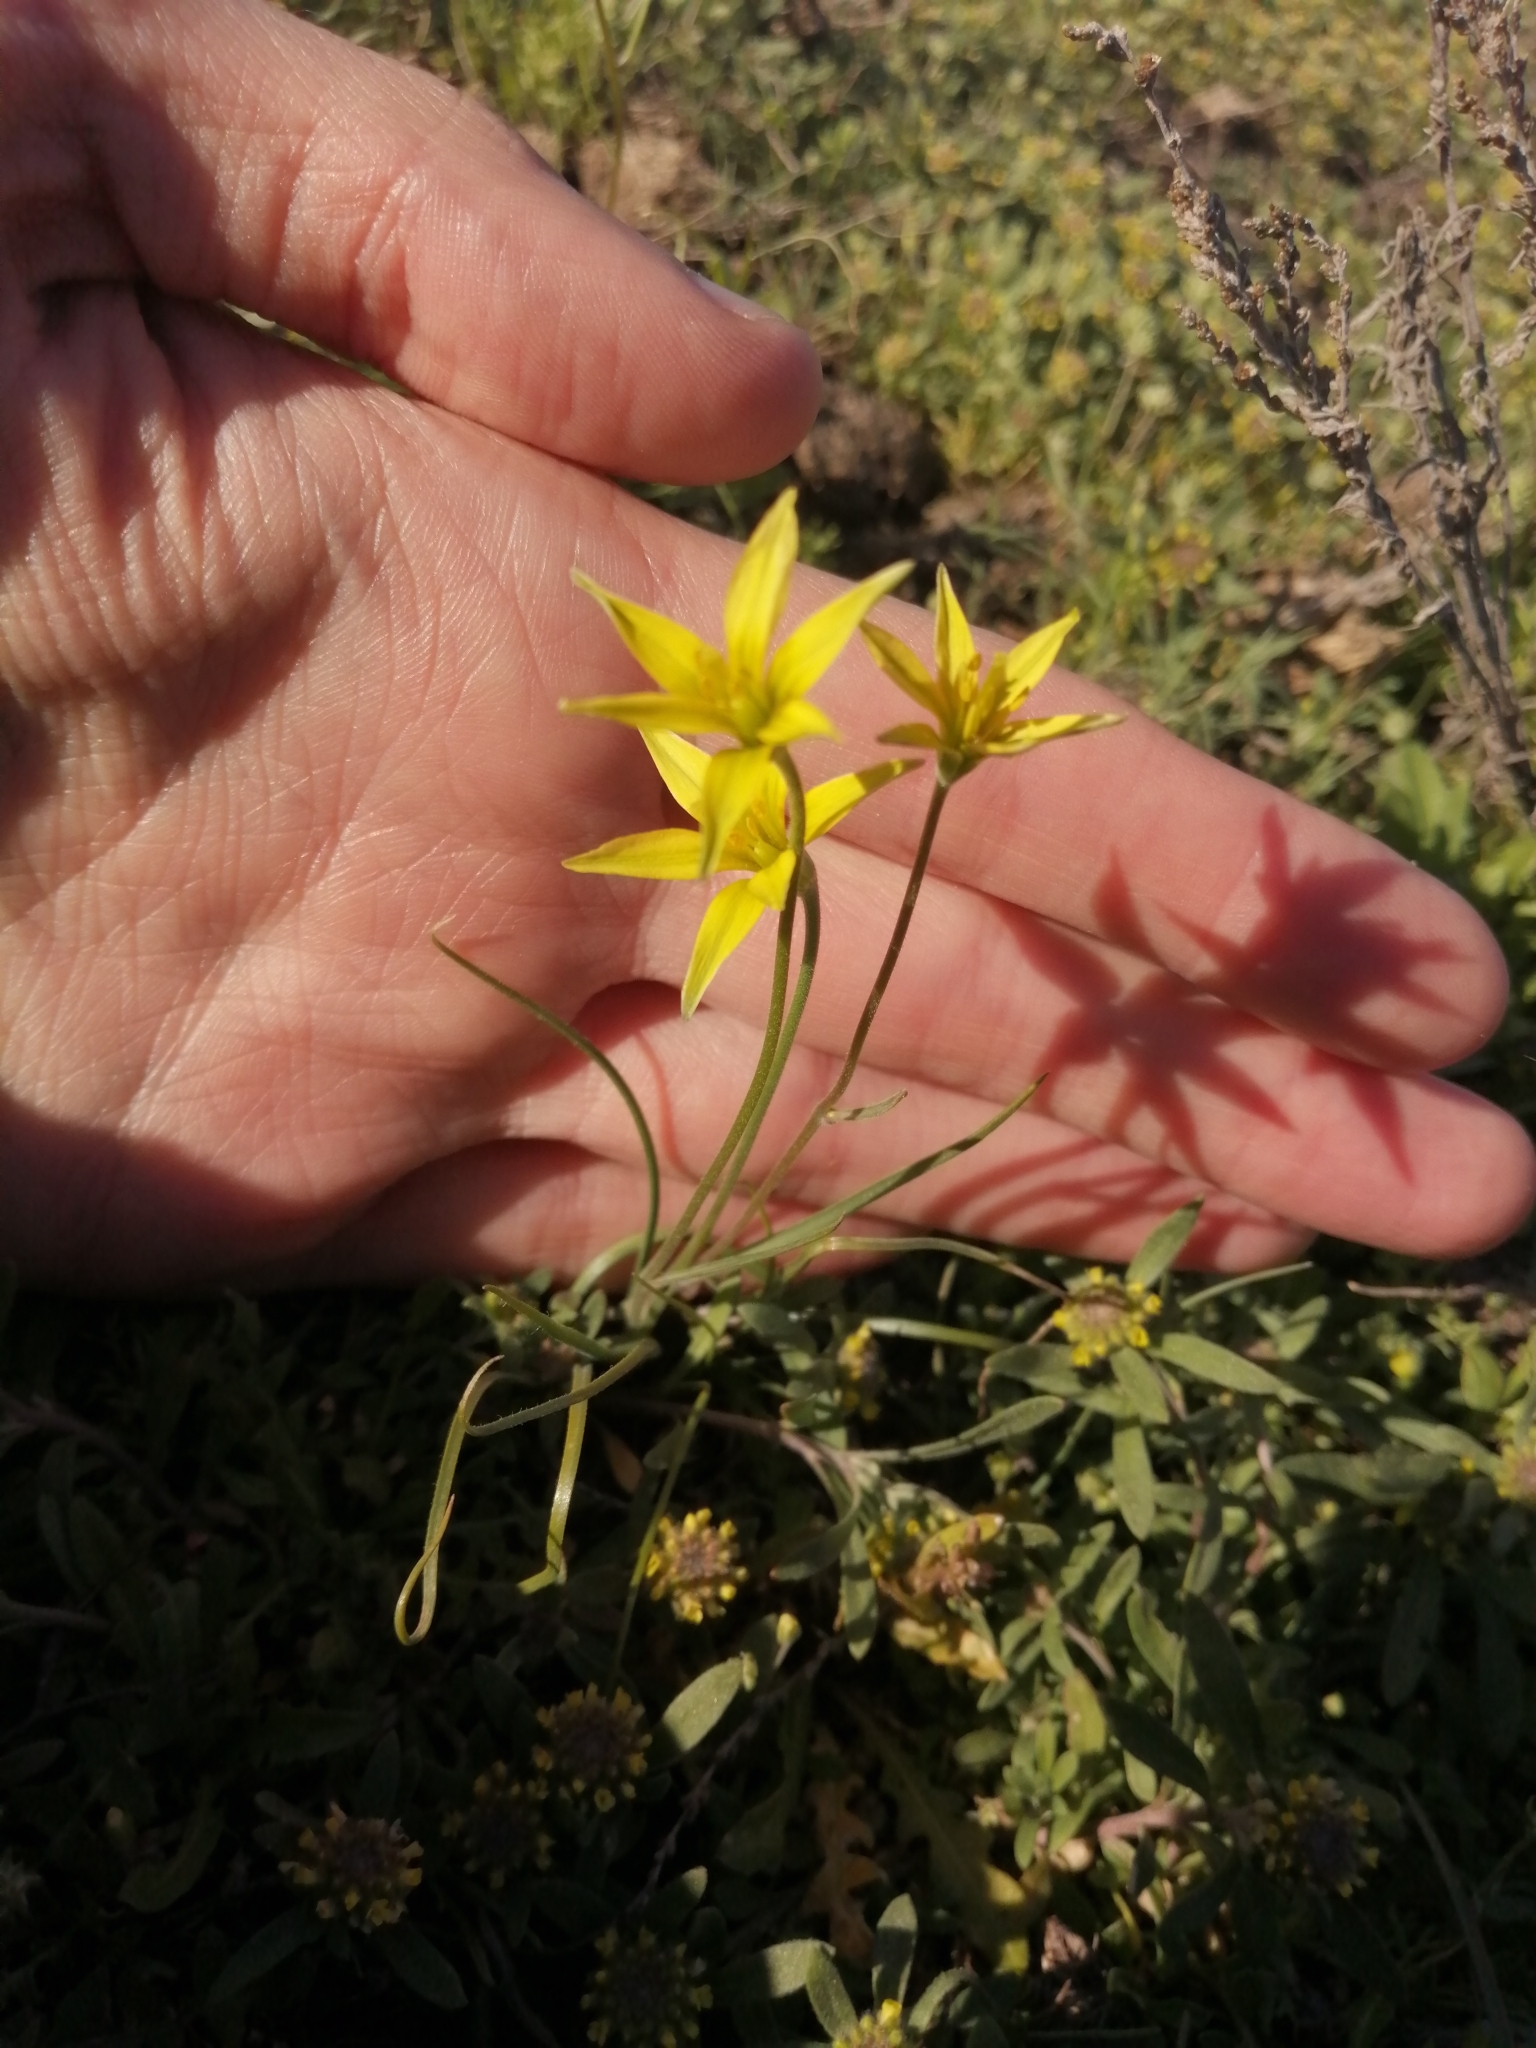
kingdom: Plantae
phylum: Tracheophyta
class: Liliopsida
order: Liliales
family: Liliaceae
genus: Gagea
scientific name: Gagea bulbifera
